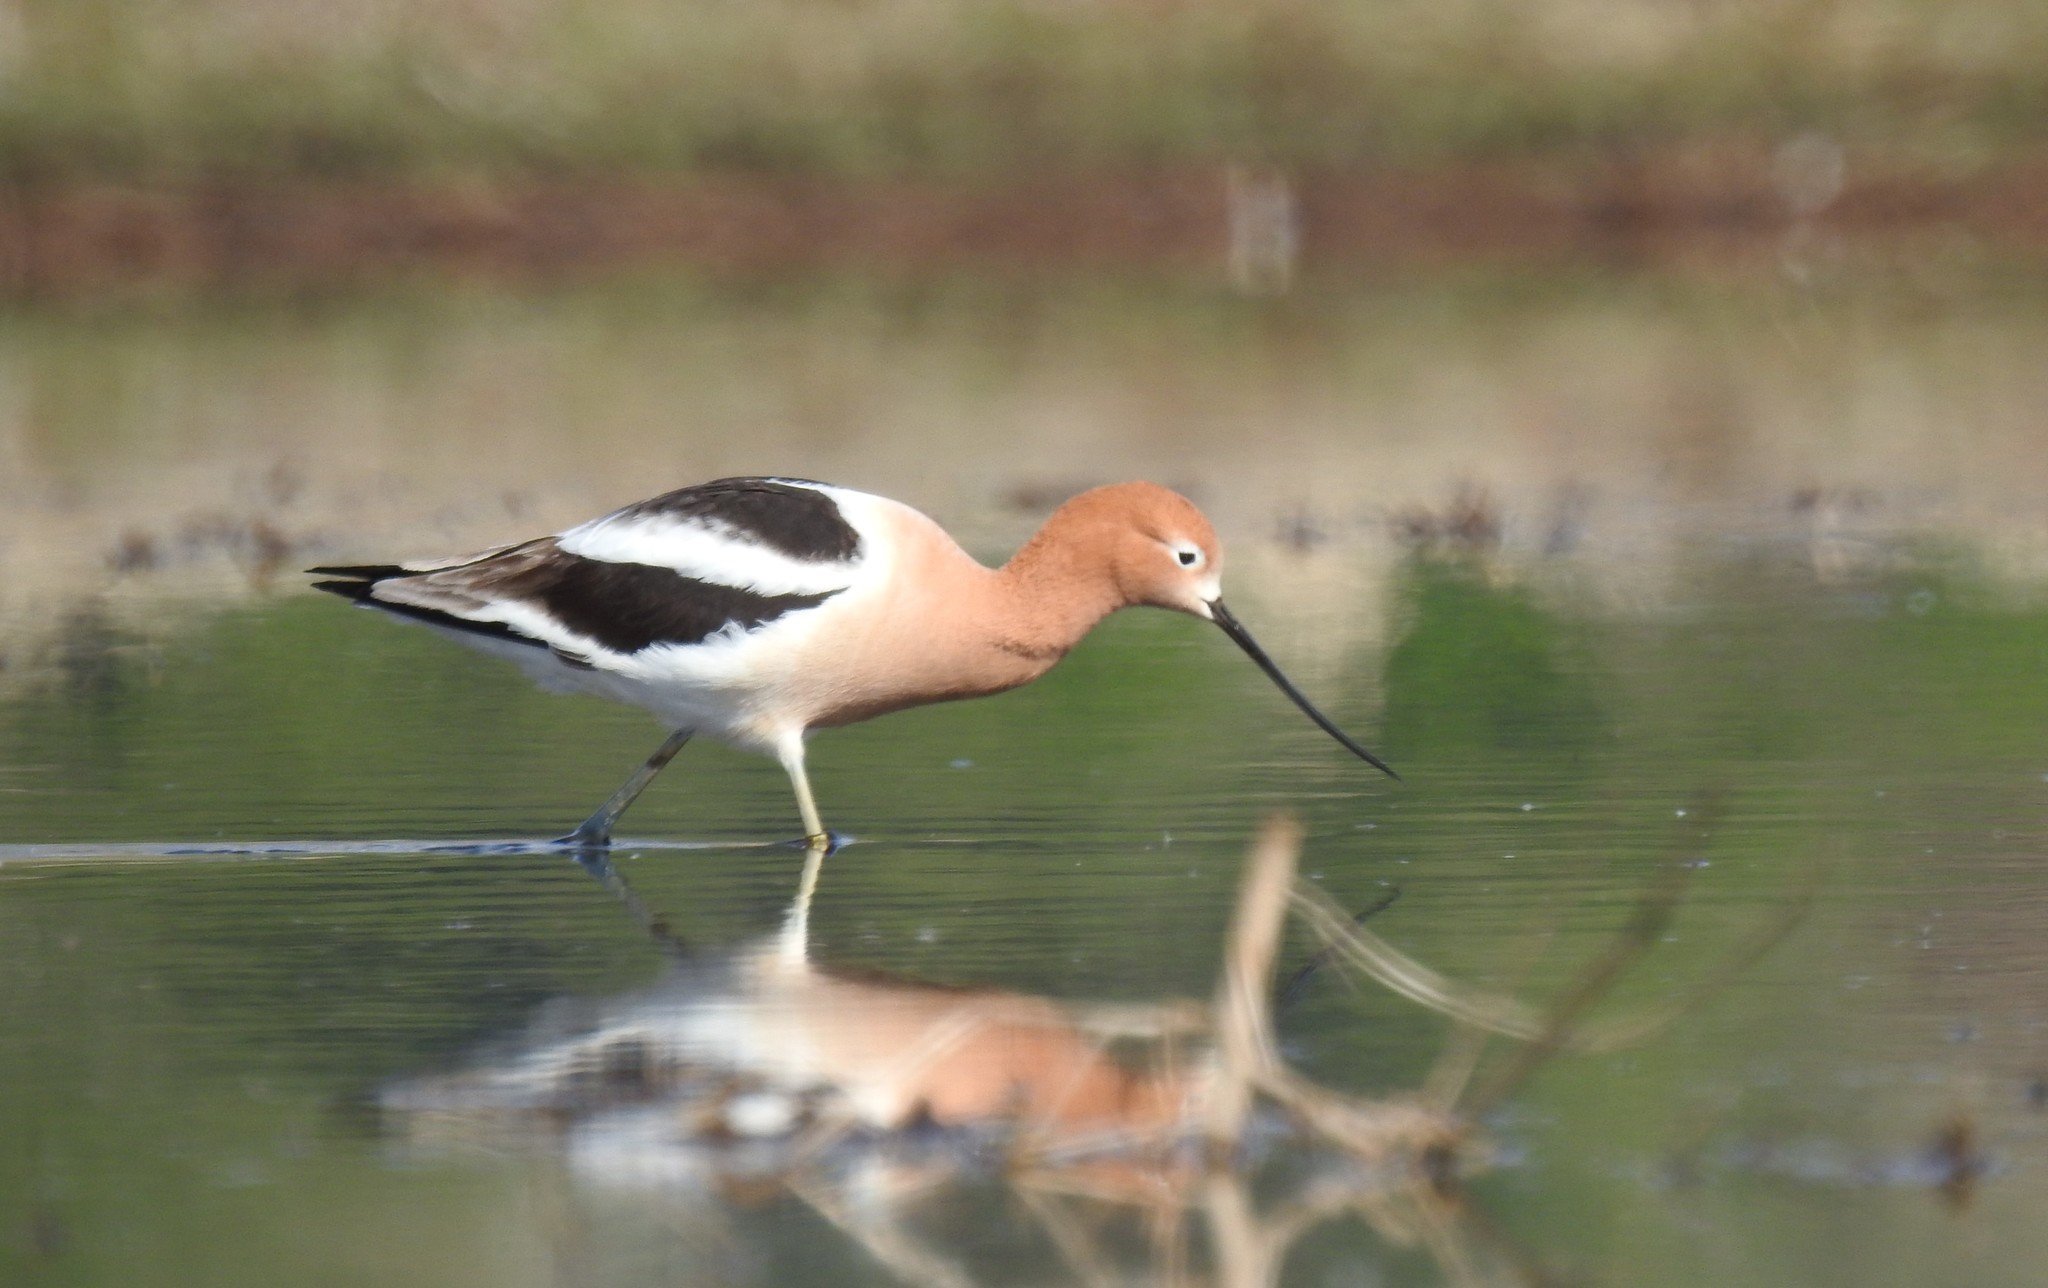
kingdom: Animalia
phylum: Chordata
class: Aves
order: Charadriiformes
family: Recurvirostridae
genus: Recurvirostra
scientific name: Recurvirostra americana
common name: American avocet
